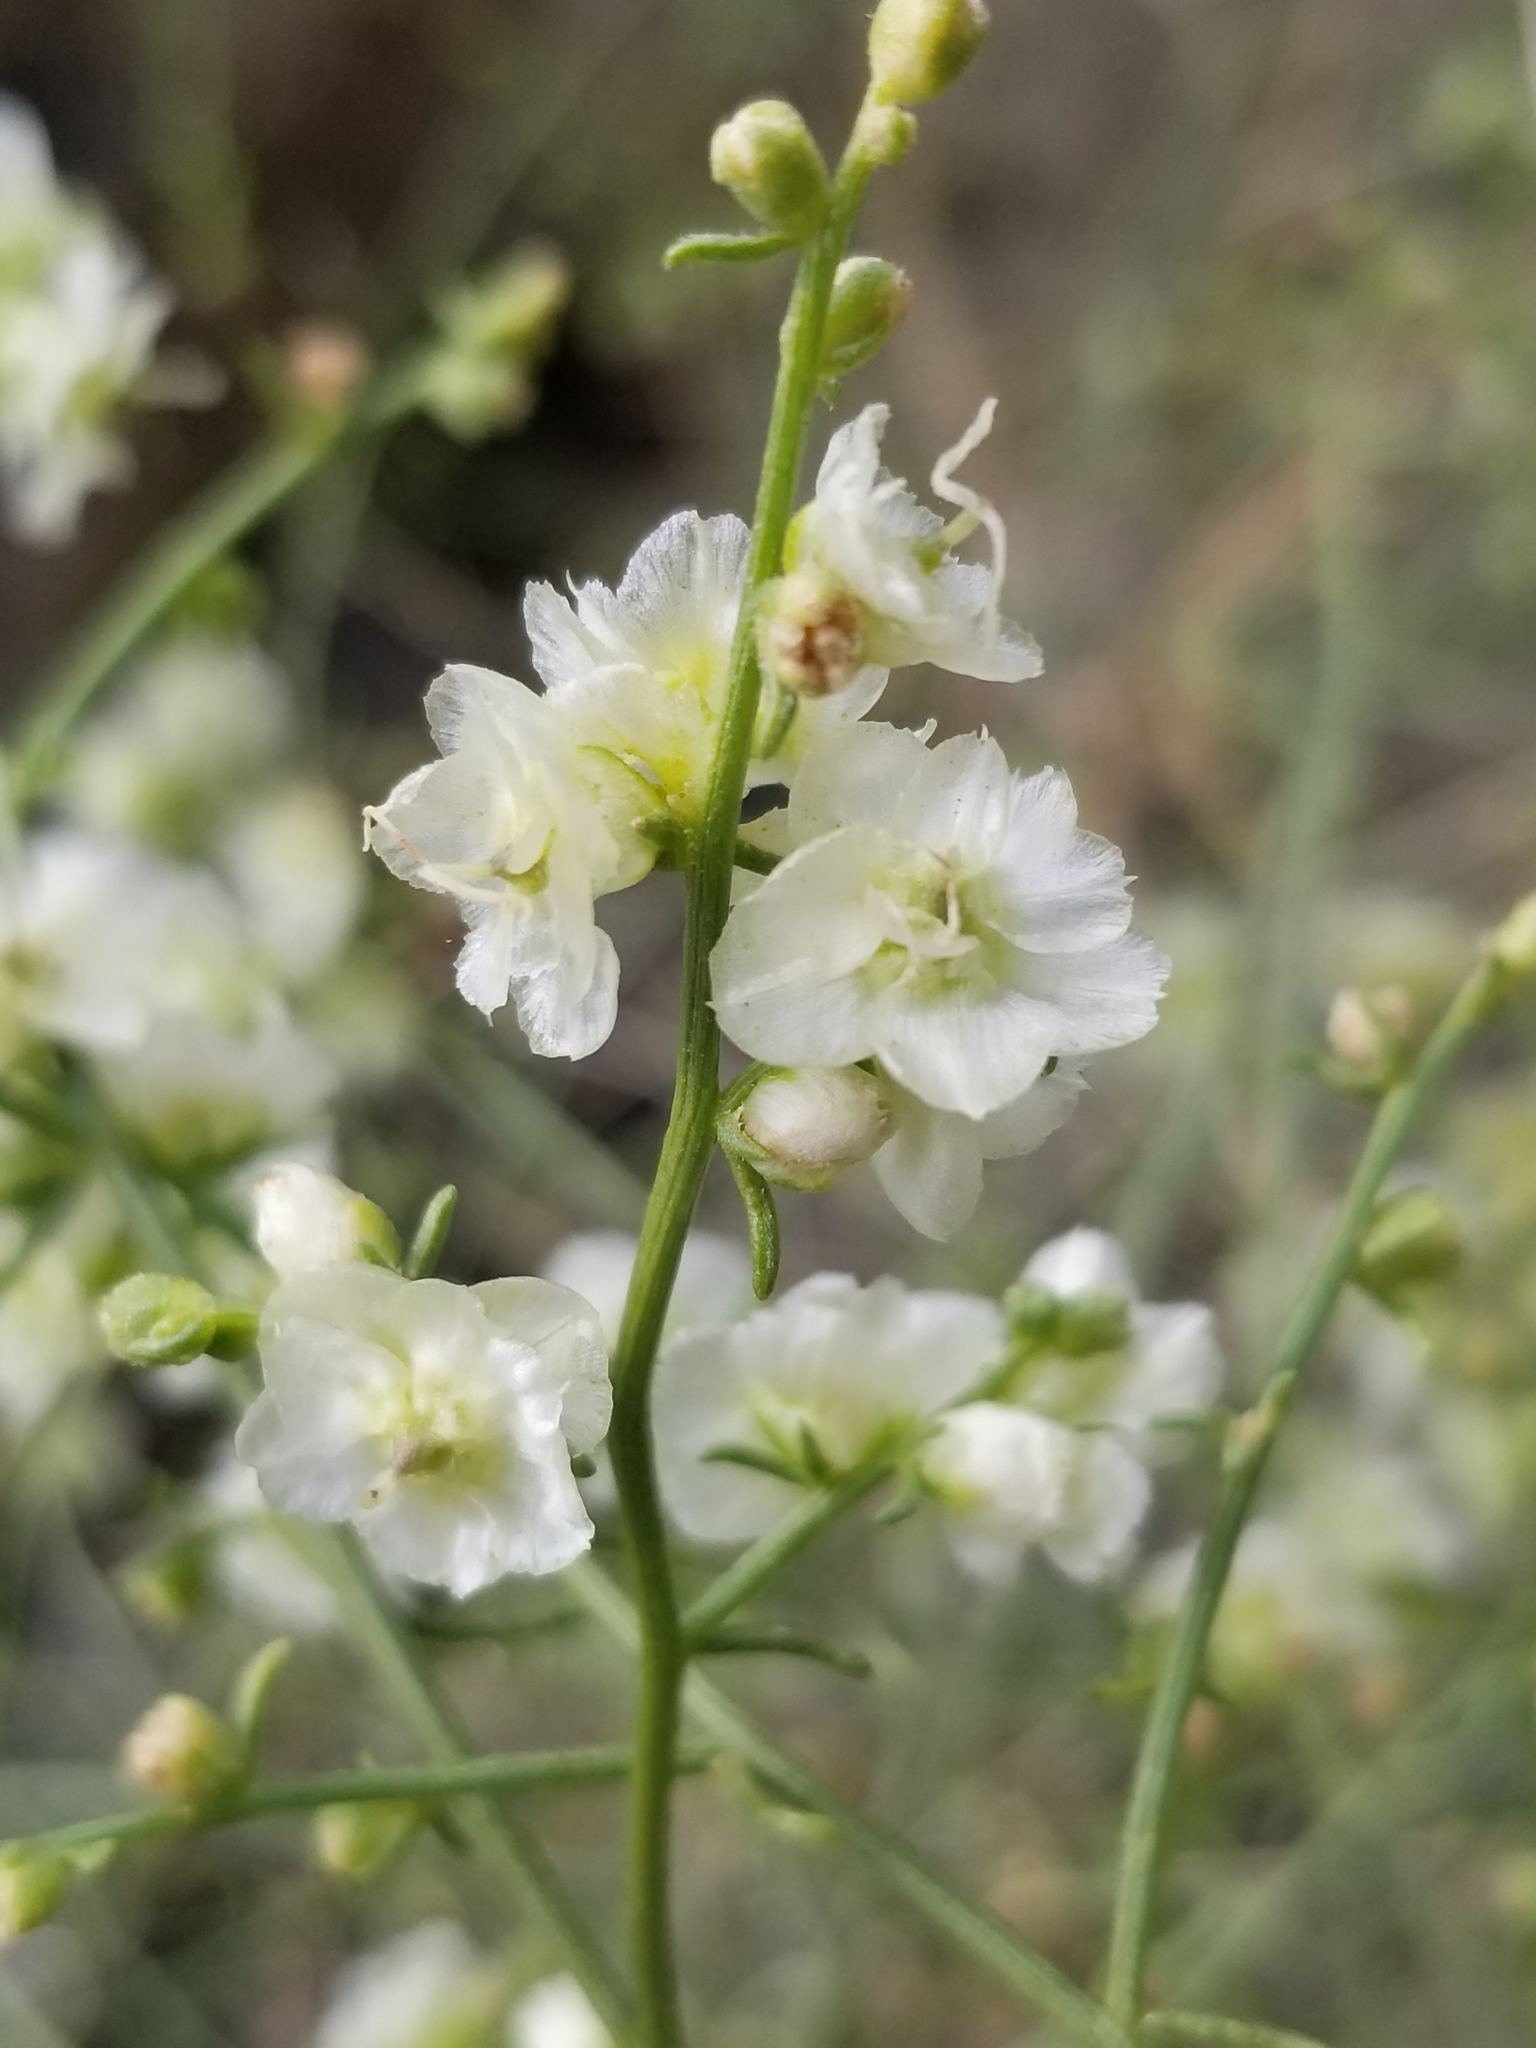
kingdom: Plantae
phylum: Tracheophyta
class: Magnoliopsida
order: Asterales
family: Asteraceae
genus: Ambrosia
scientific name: Ambrosia salsola
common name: Burrobrush
